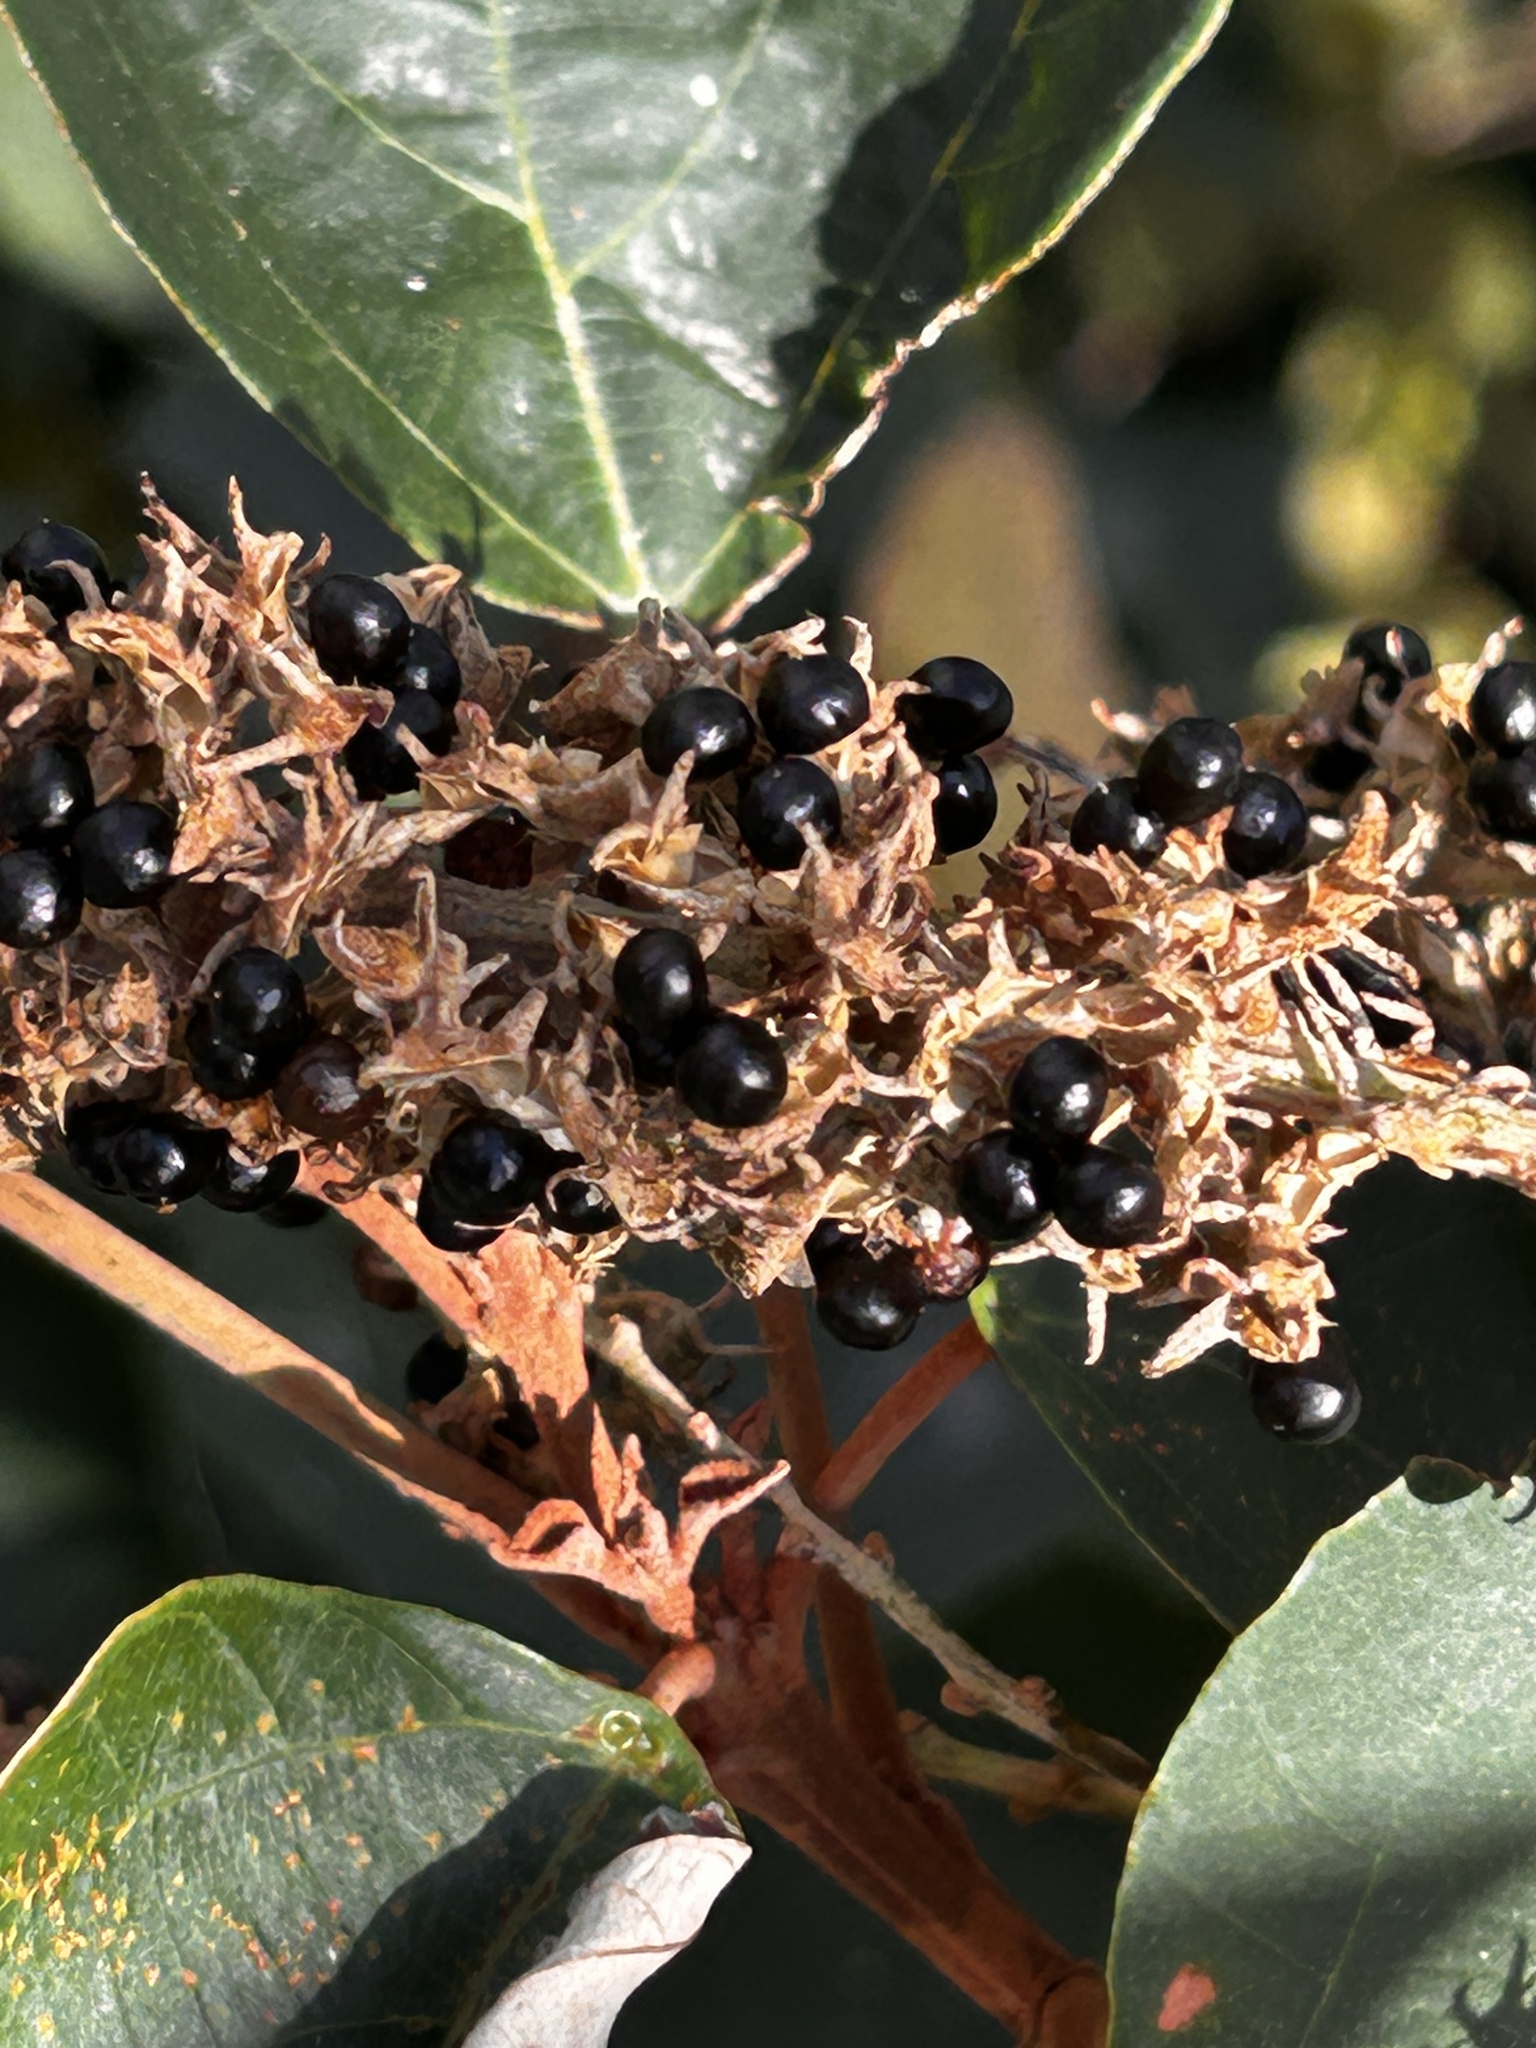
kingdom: Plantae
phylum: Tracheophyta
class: Magnoliopsida
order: Malpighiales
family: Euphorbiaceae
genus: Mallotus
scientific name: Mallotus paniculatus
